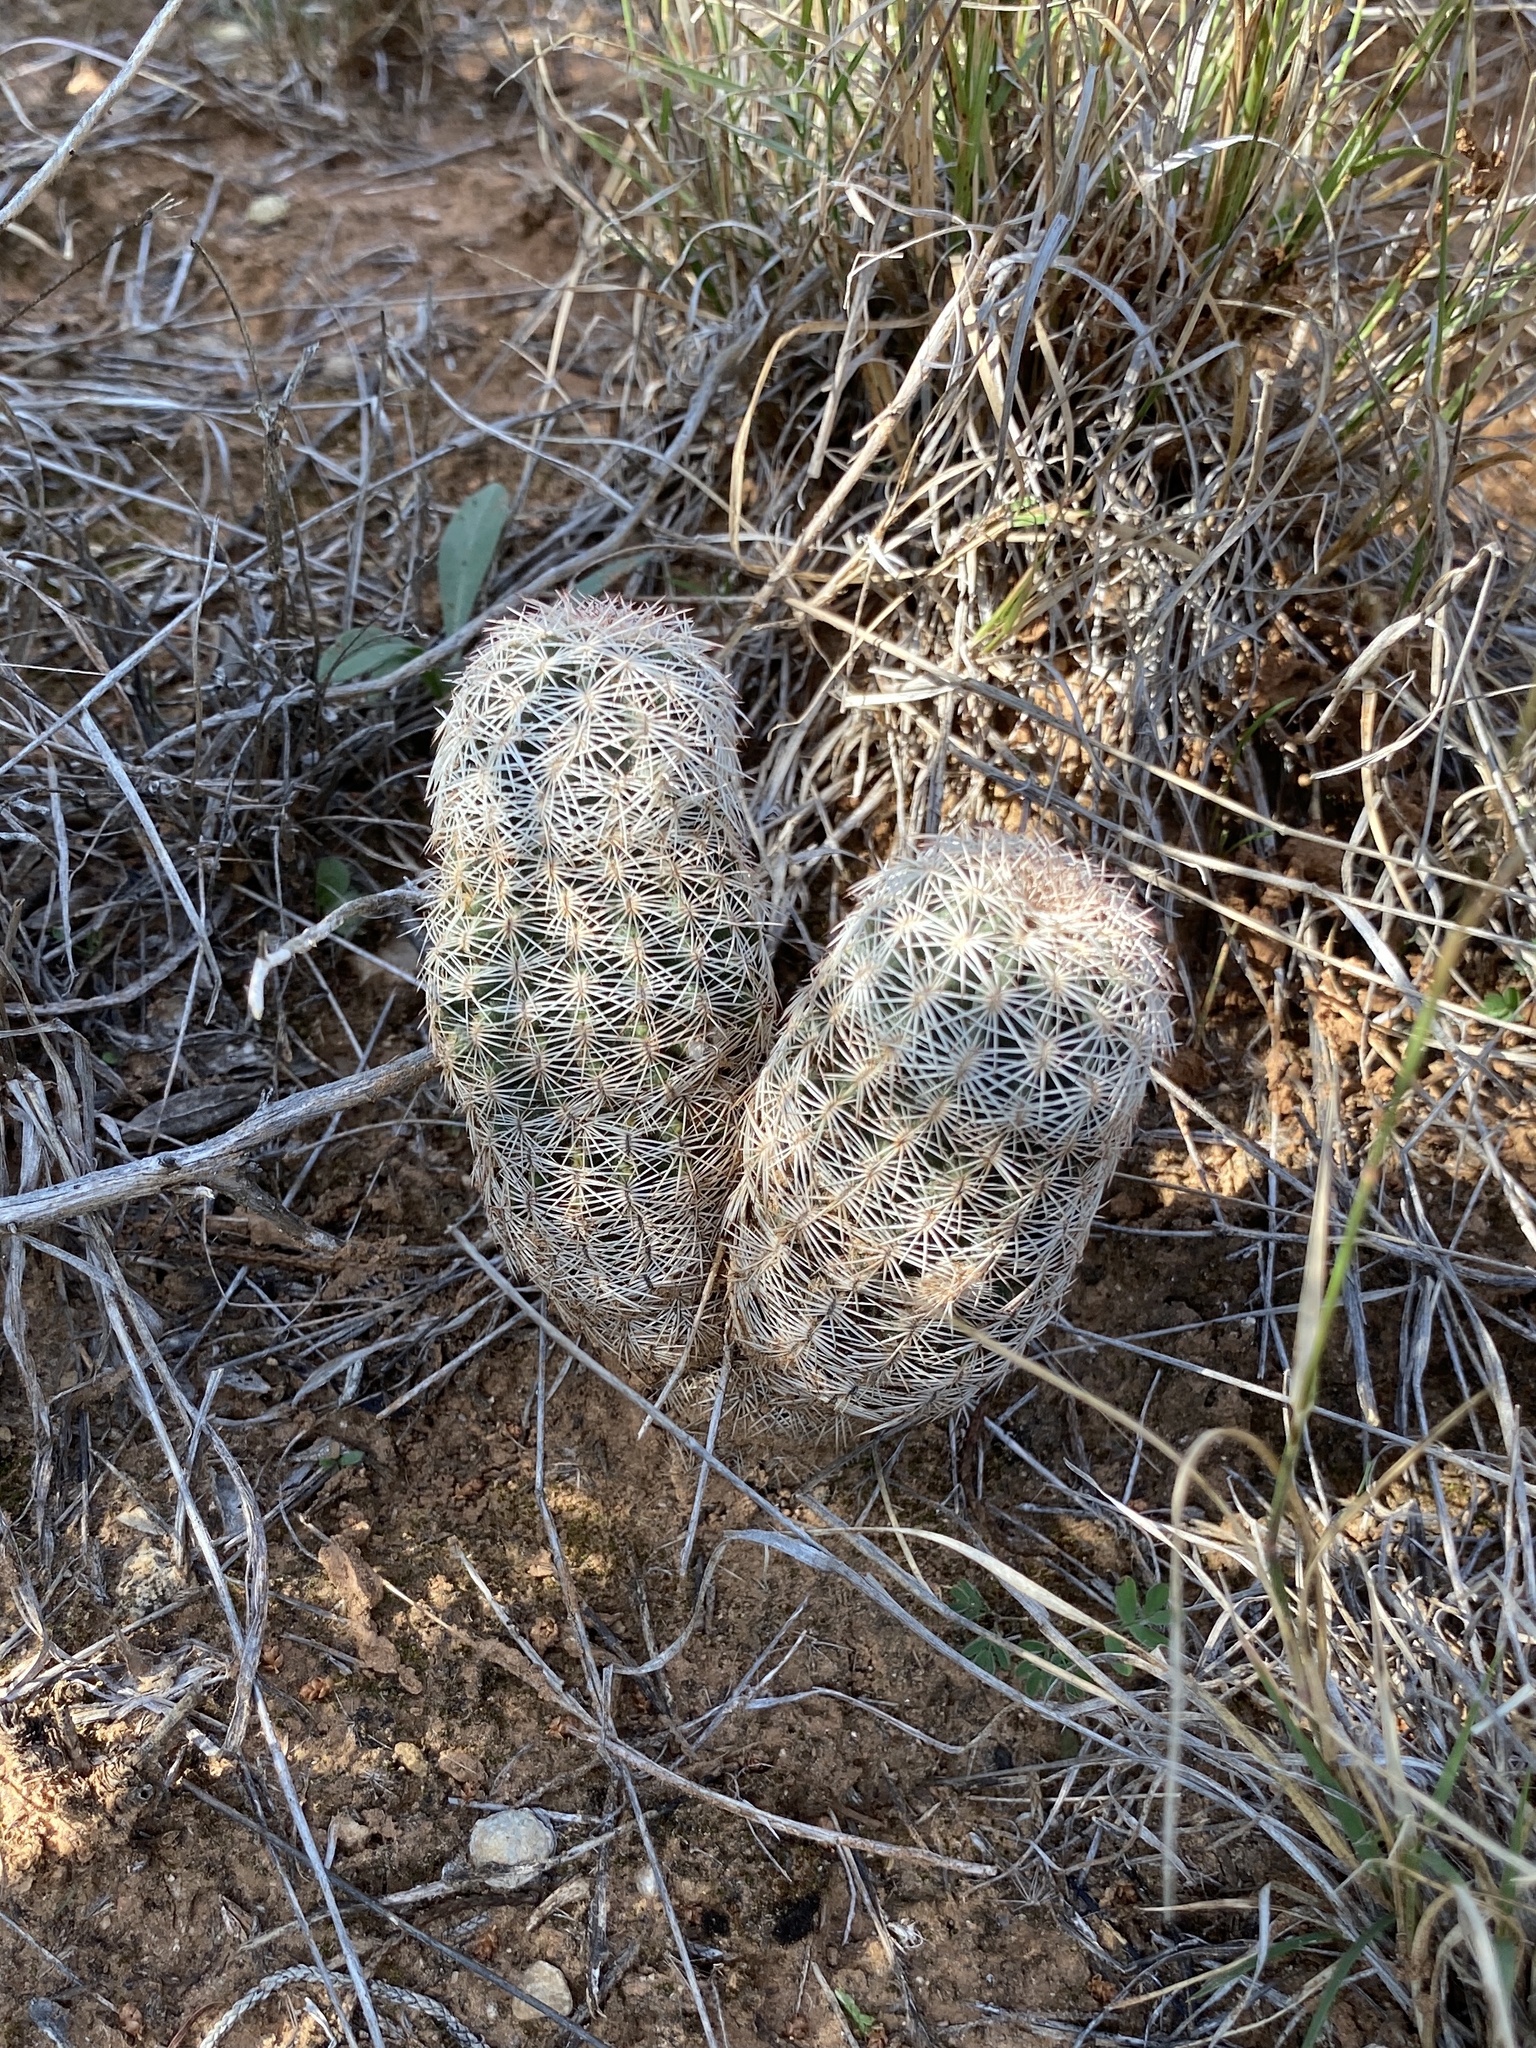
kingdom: Plantae
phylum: Tracheophyta
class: Magnoliopsida
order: Caryophyllales
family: Cactaceae
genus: Echinocereus
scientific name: Echinocereus reichenbachii
